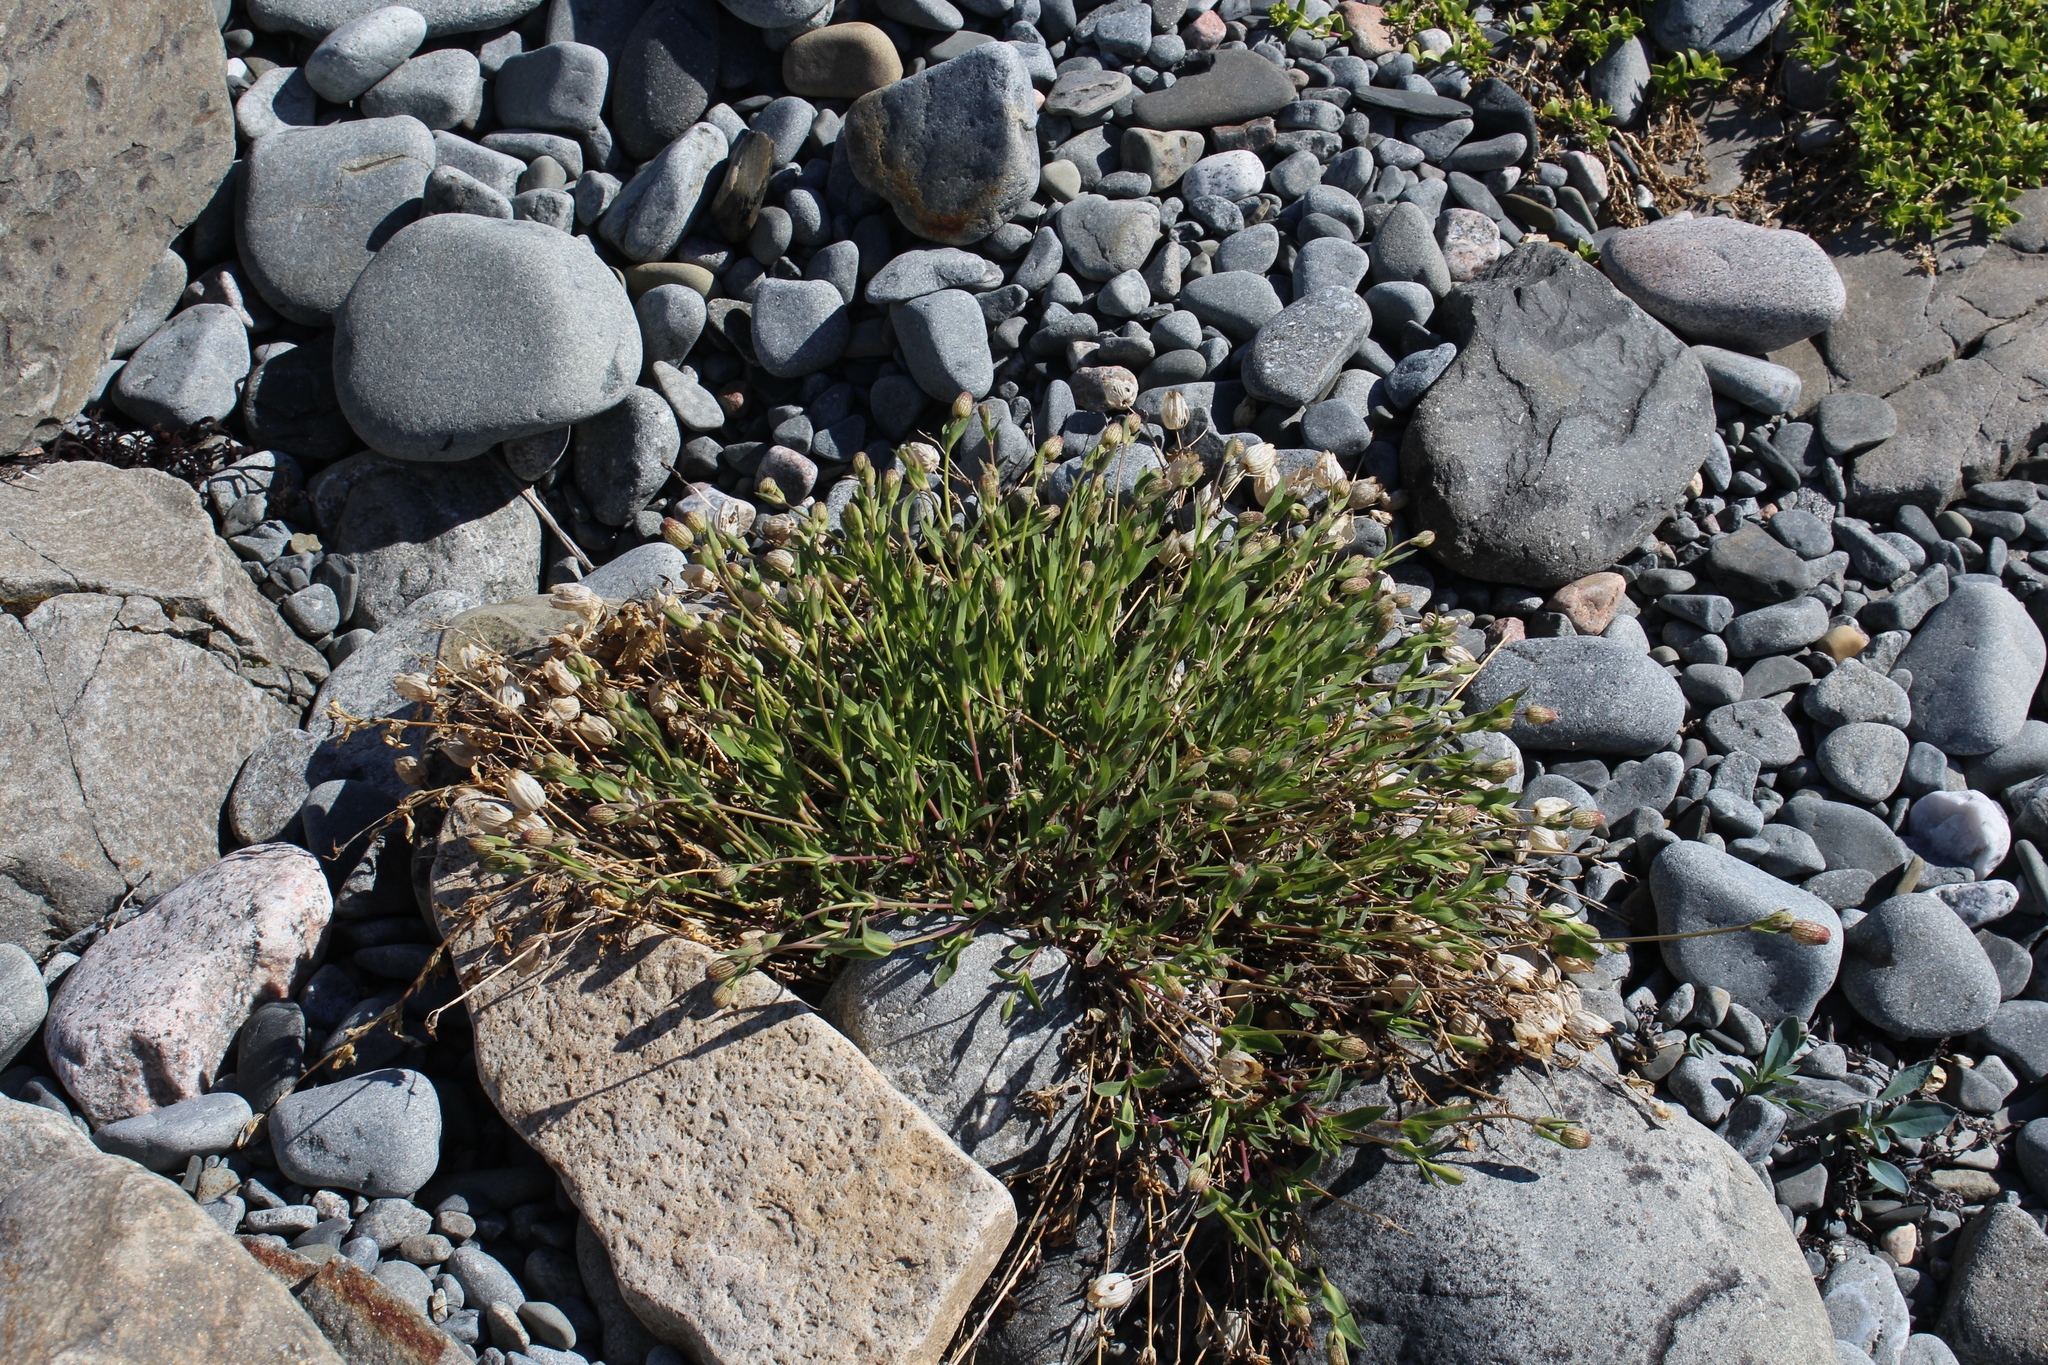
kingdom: Plantae
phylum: Tracheophyta
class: Magnoliopsida
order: Caryophyllales
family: Caryophyllaceae
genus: Silene
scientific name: Silene uniflora
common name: Sea campion
